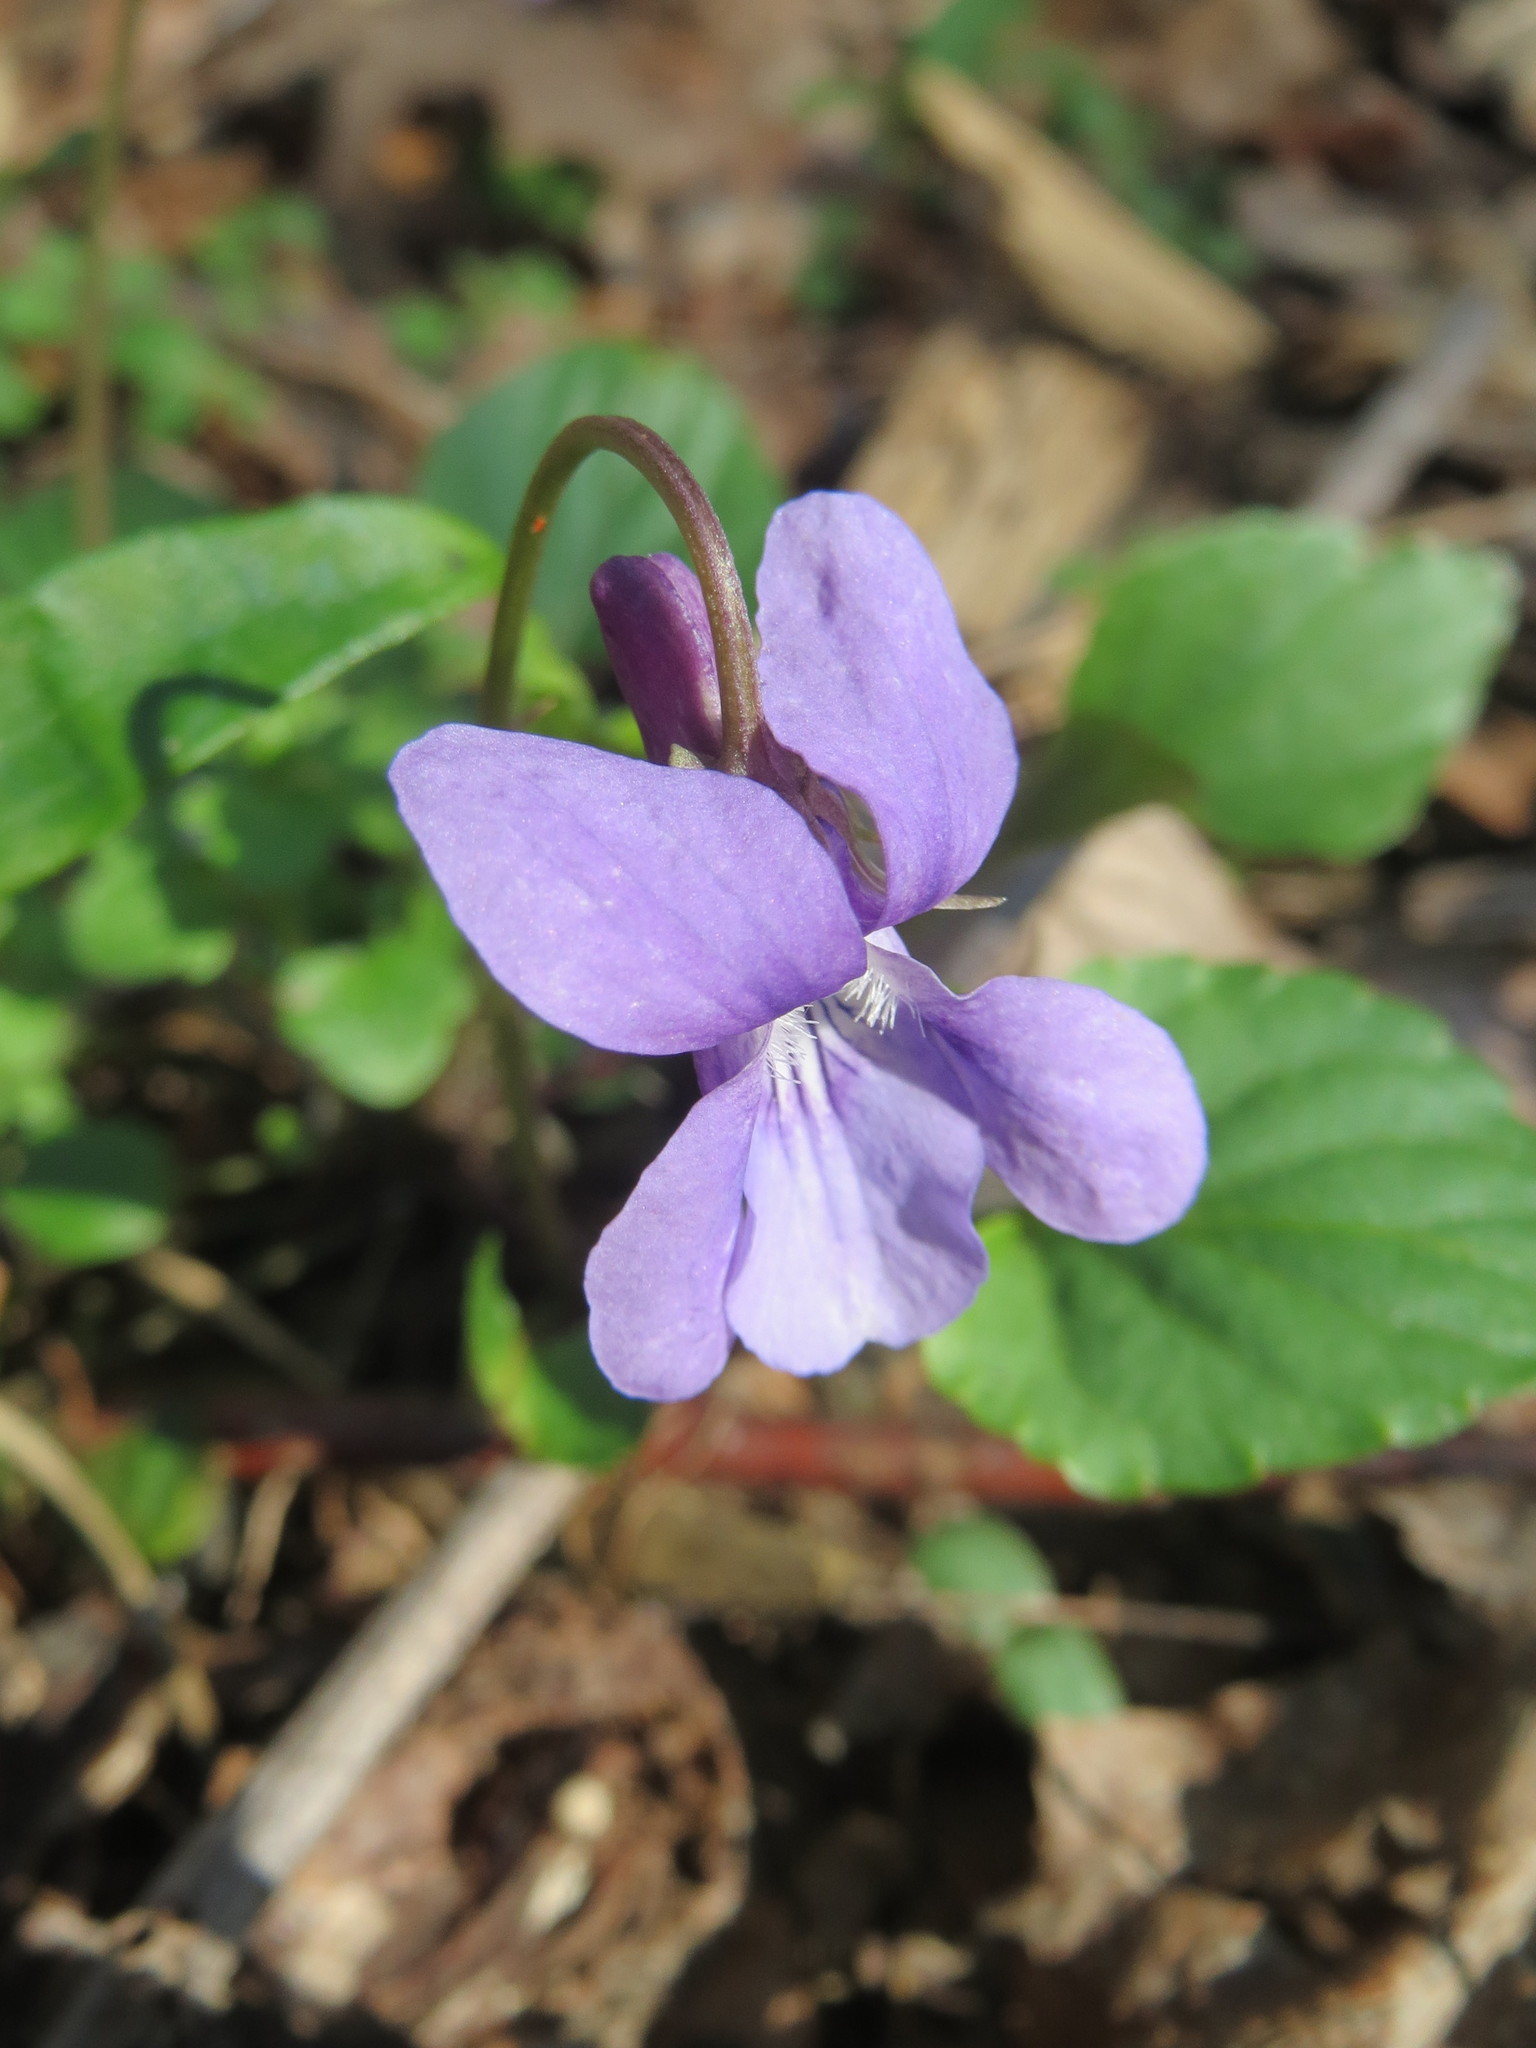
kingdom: Plantae
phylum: Tracheophyta
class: Magnoliopsida
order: Malpighiales
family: Violaceae
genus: Viola
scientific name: Viola reichenbachiana
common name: Early dog-violet
